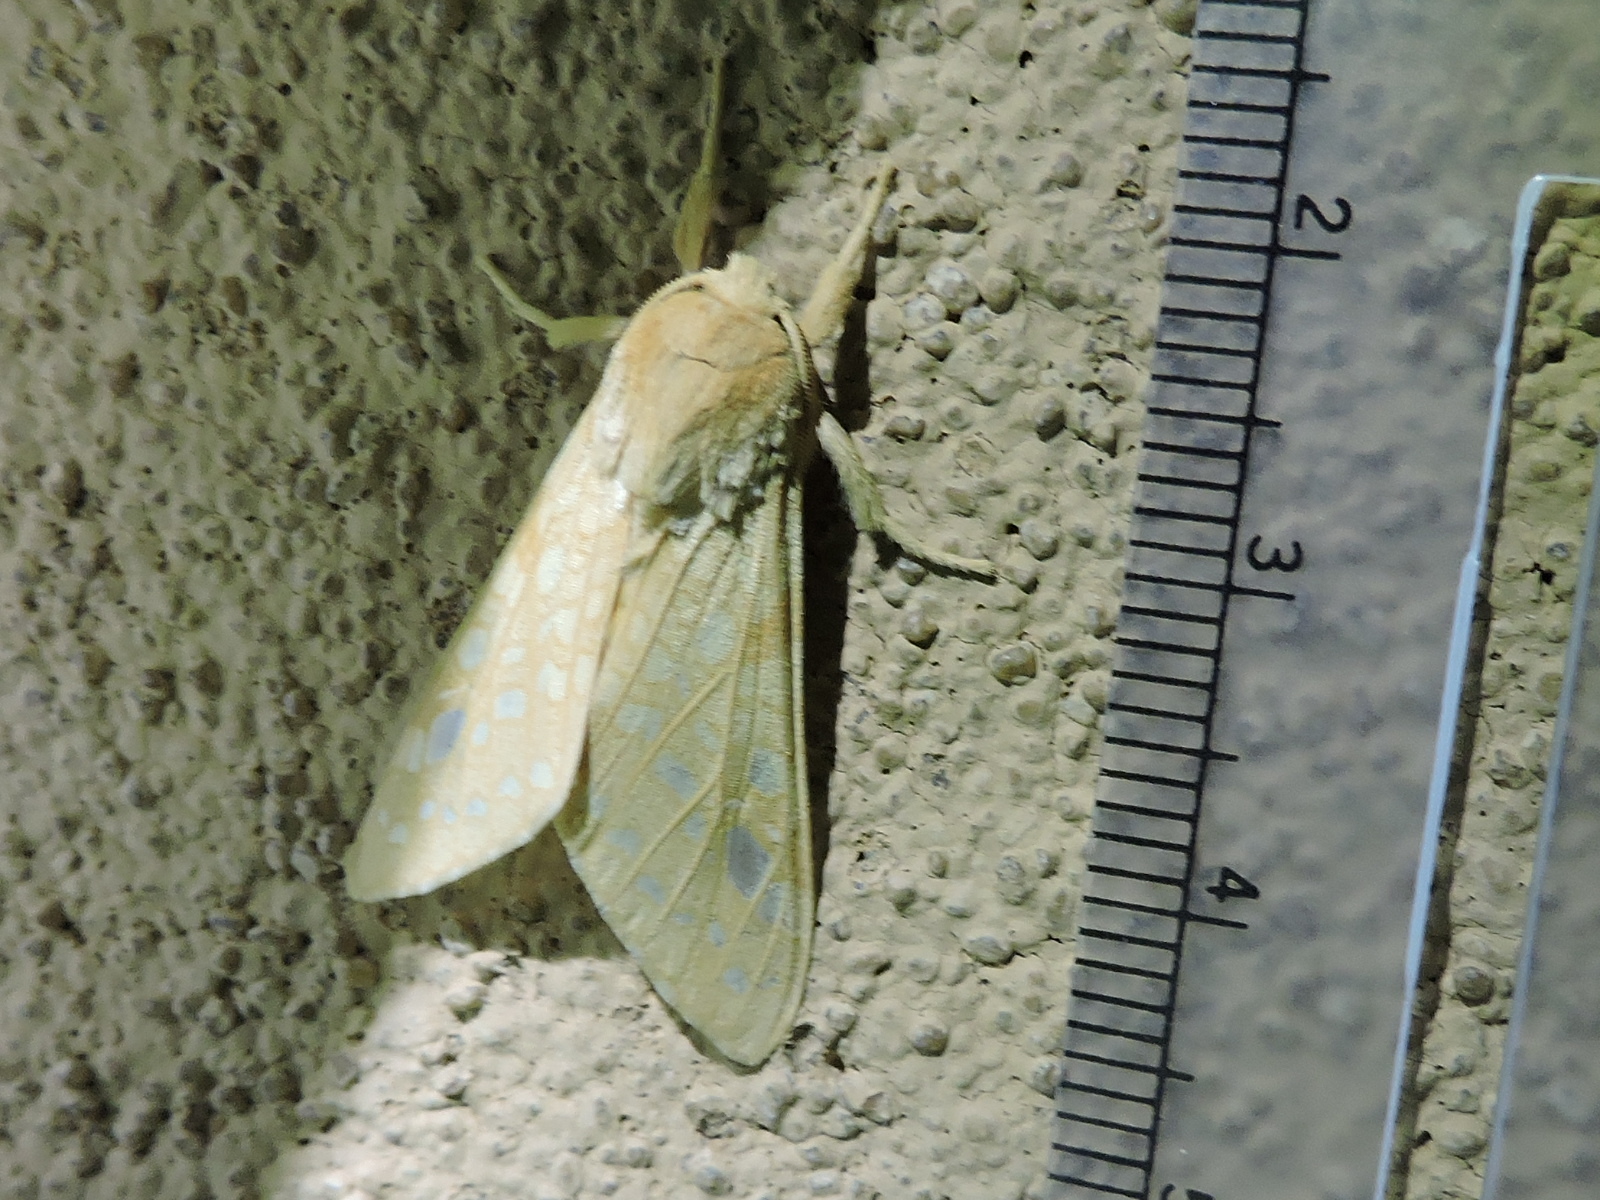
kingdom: Animalia
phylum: Arthropoda
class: Insecta
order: Lepidoptera
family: Erebidae
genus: Lophocampa
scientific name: Lophocampa bicolor
